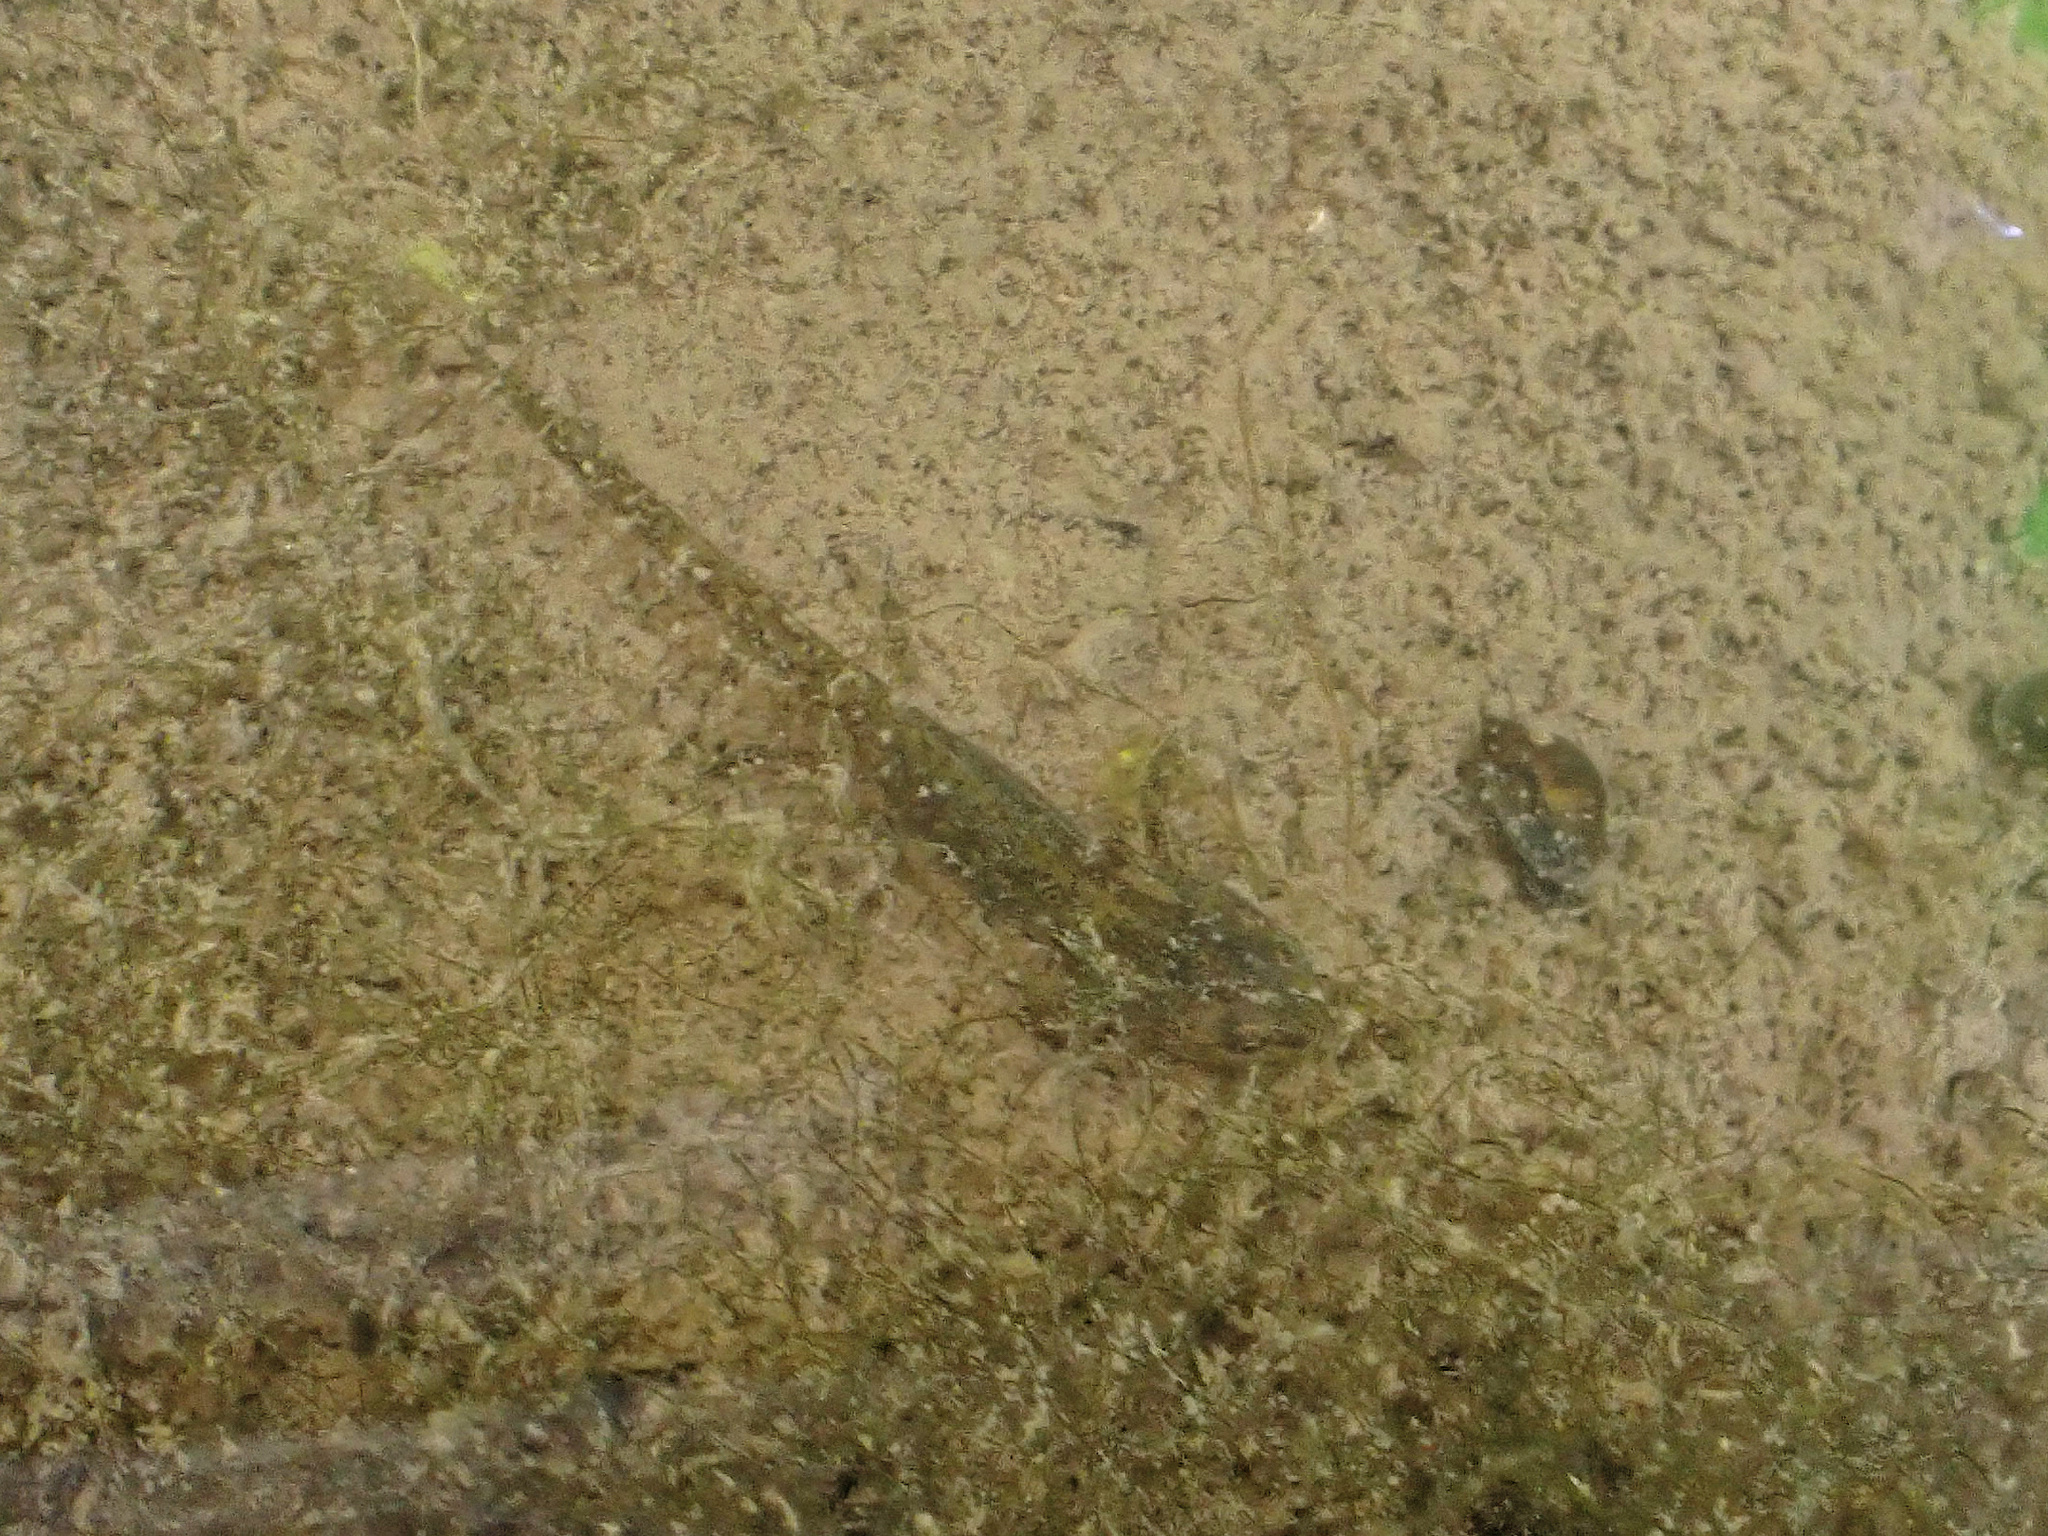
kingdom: Animalia
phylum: Chordata
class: Amphibia
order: Caudata
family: Salamandridae
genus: Ichthyosaura
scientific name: Ichthyosaura alpestris
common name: Alpine newt
